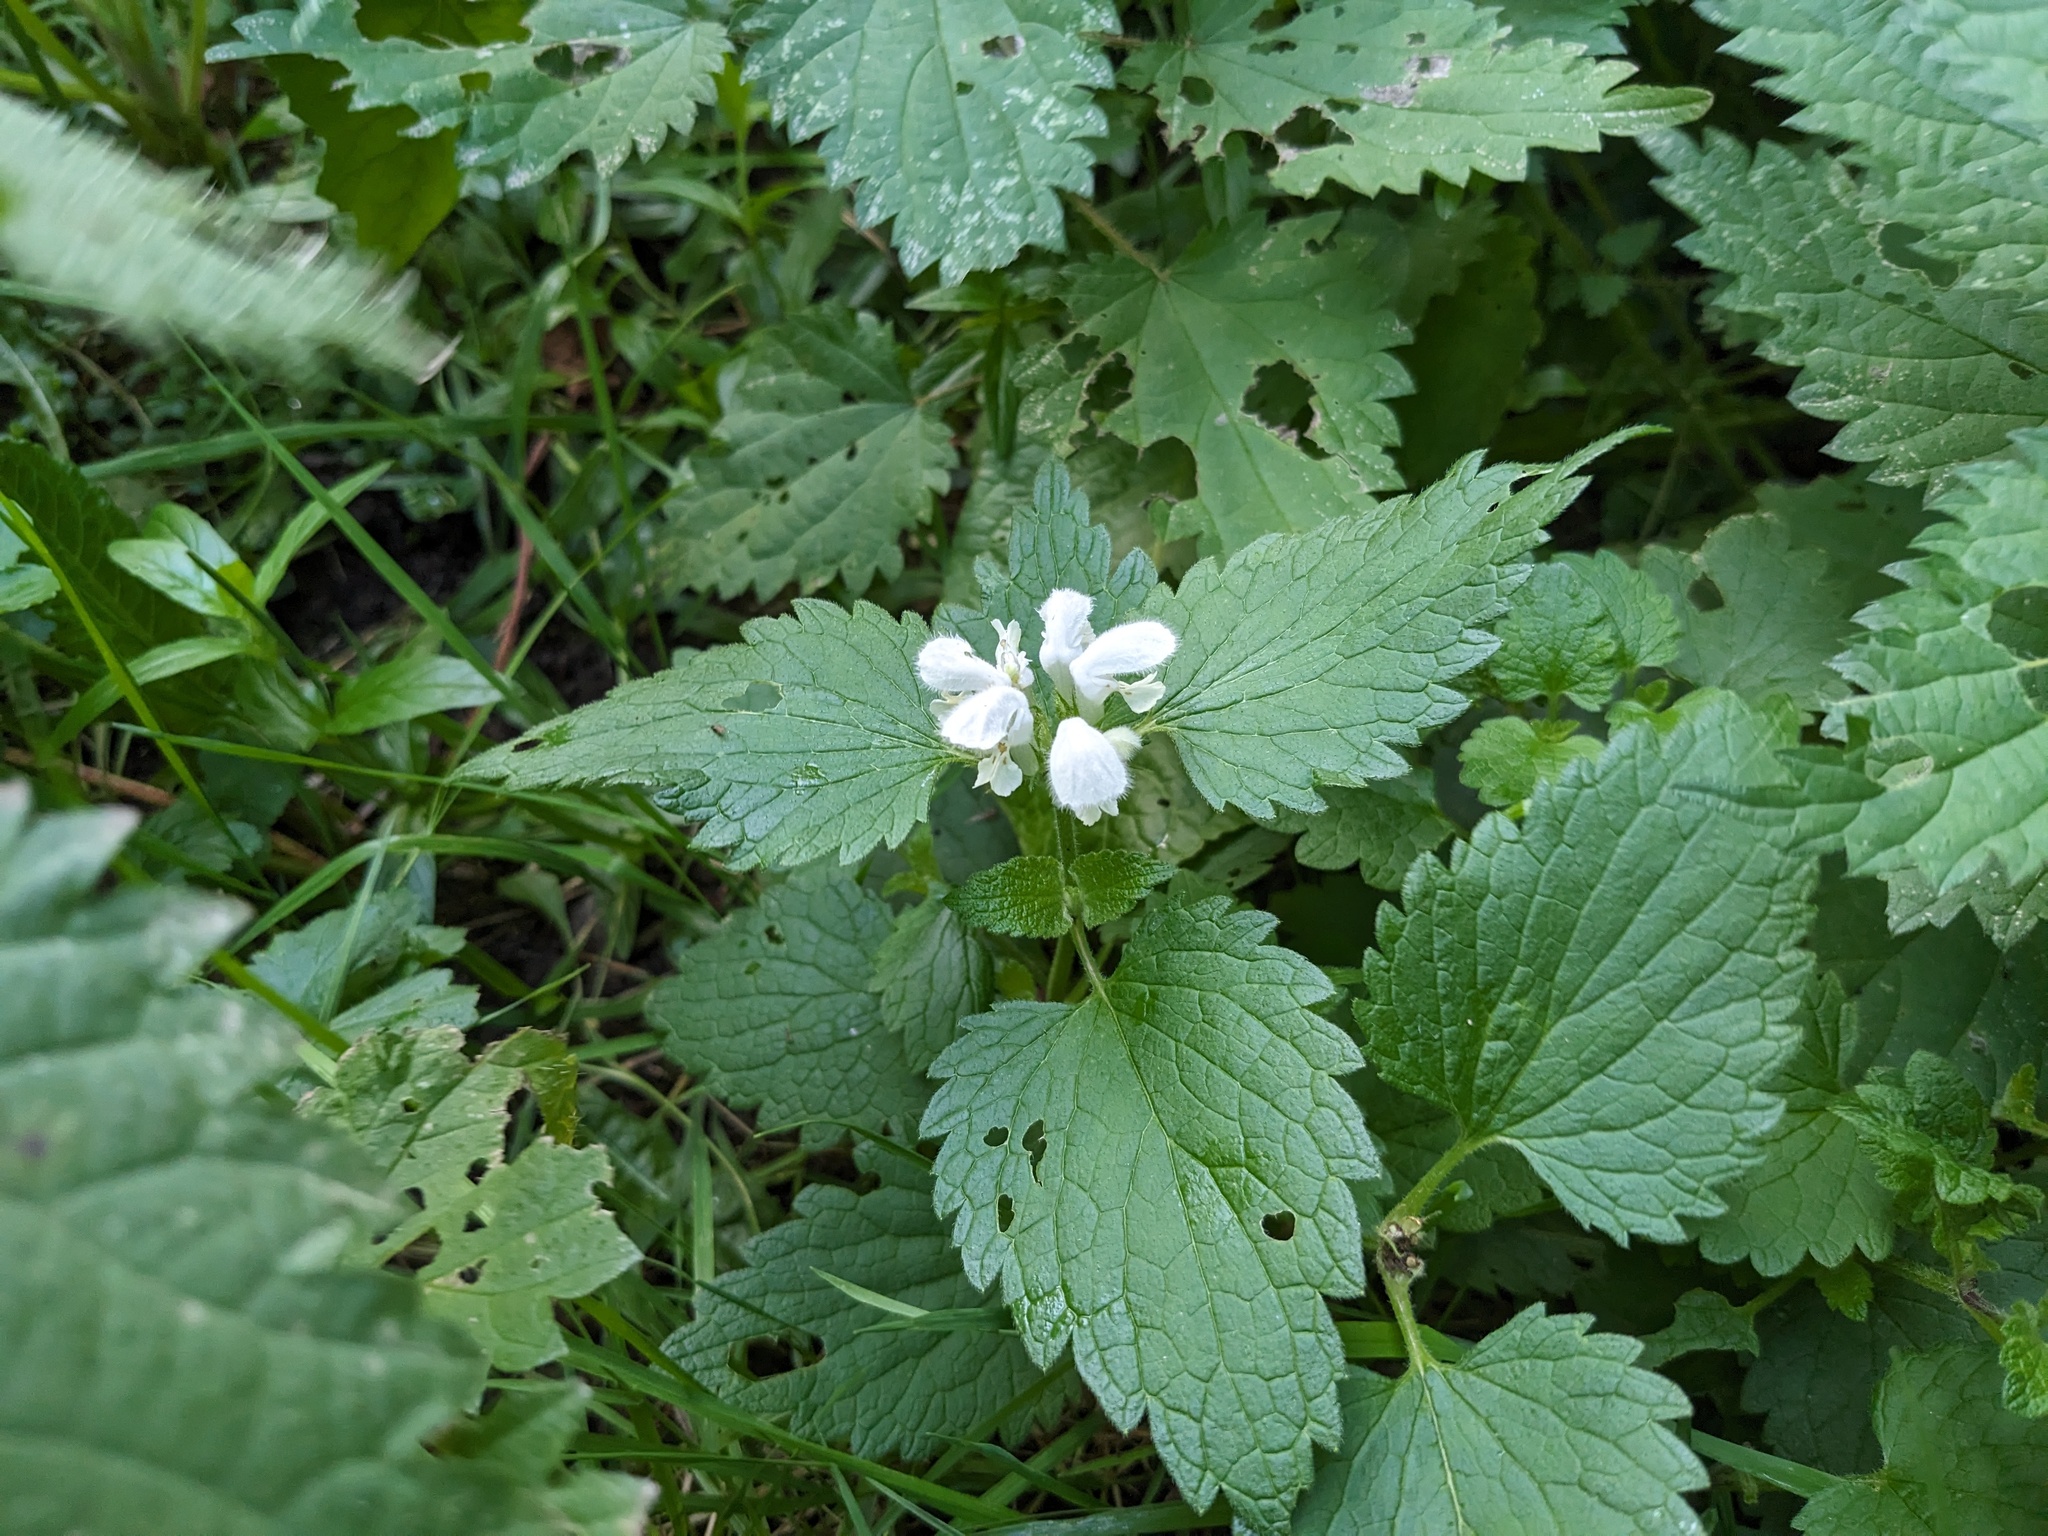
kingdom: Plantae
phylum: Tracheophyta
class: Magnoliopsida
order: Lamiales
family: Lamiaceae
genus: Lamium
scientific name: Lamium album
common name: White dead-nettle
